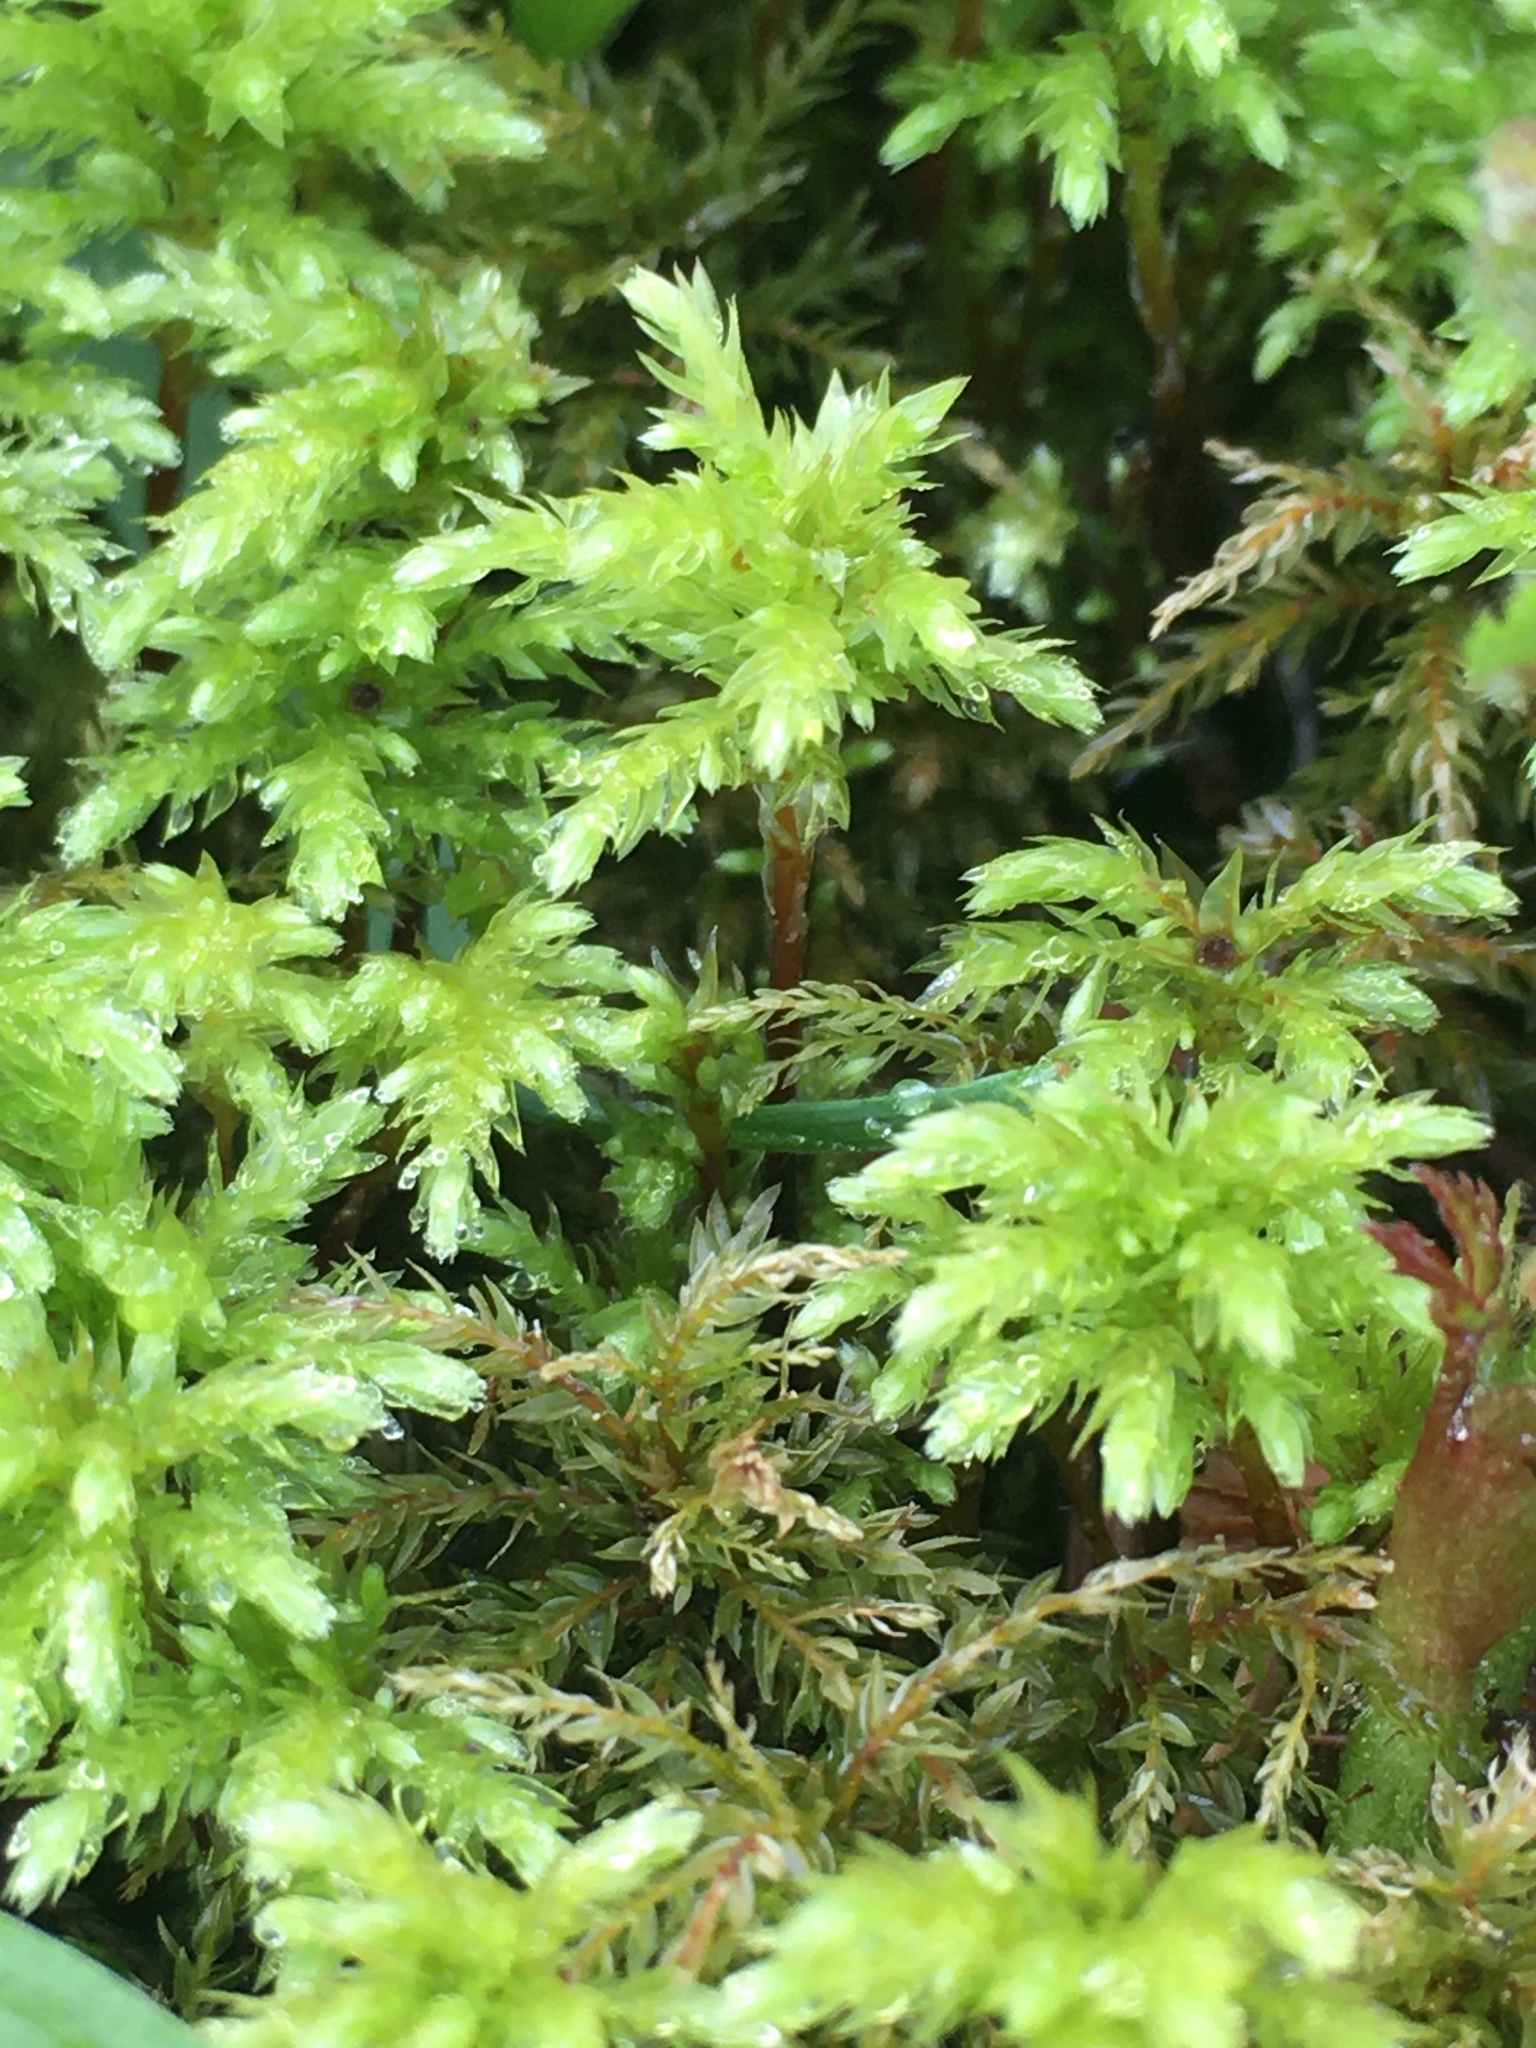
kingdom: Plantae
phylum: Bryophyta
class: Bryopsida
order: Bryales
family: Mniaceae
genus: Leucolepis
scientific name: Leucolepis acanthoneura
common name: Leucolepis umbrella moss
